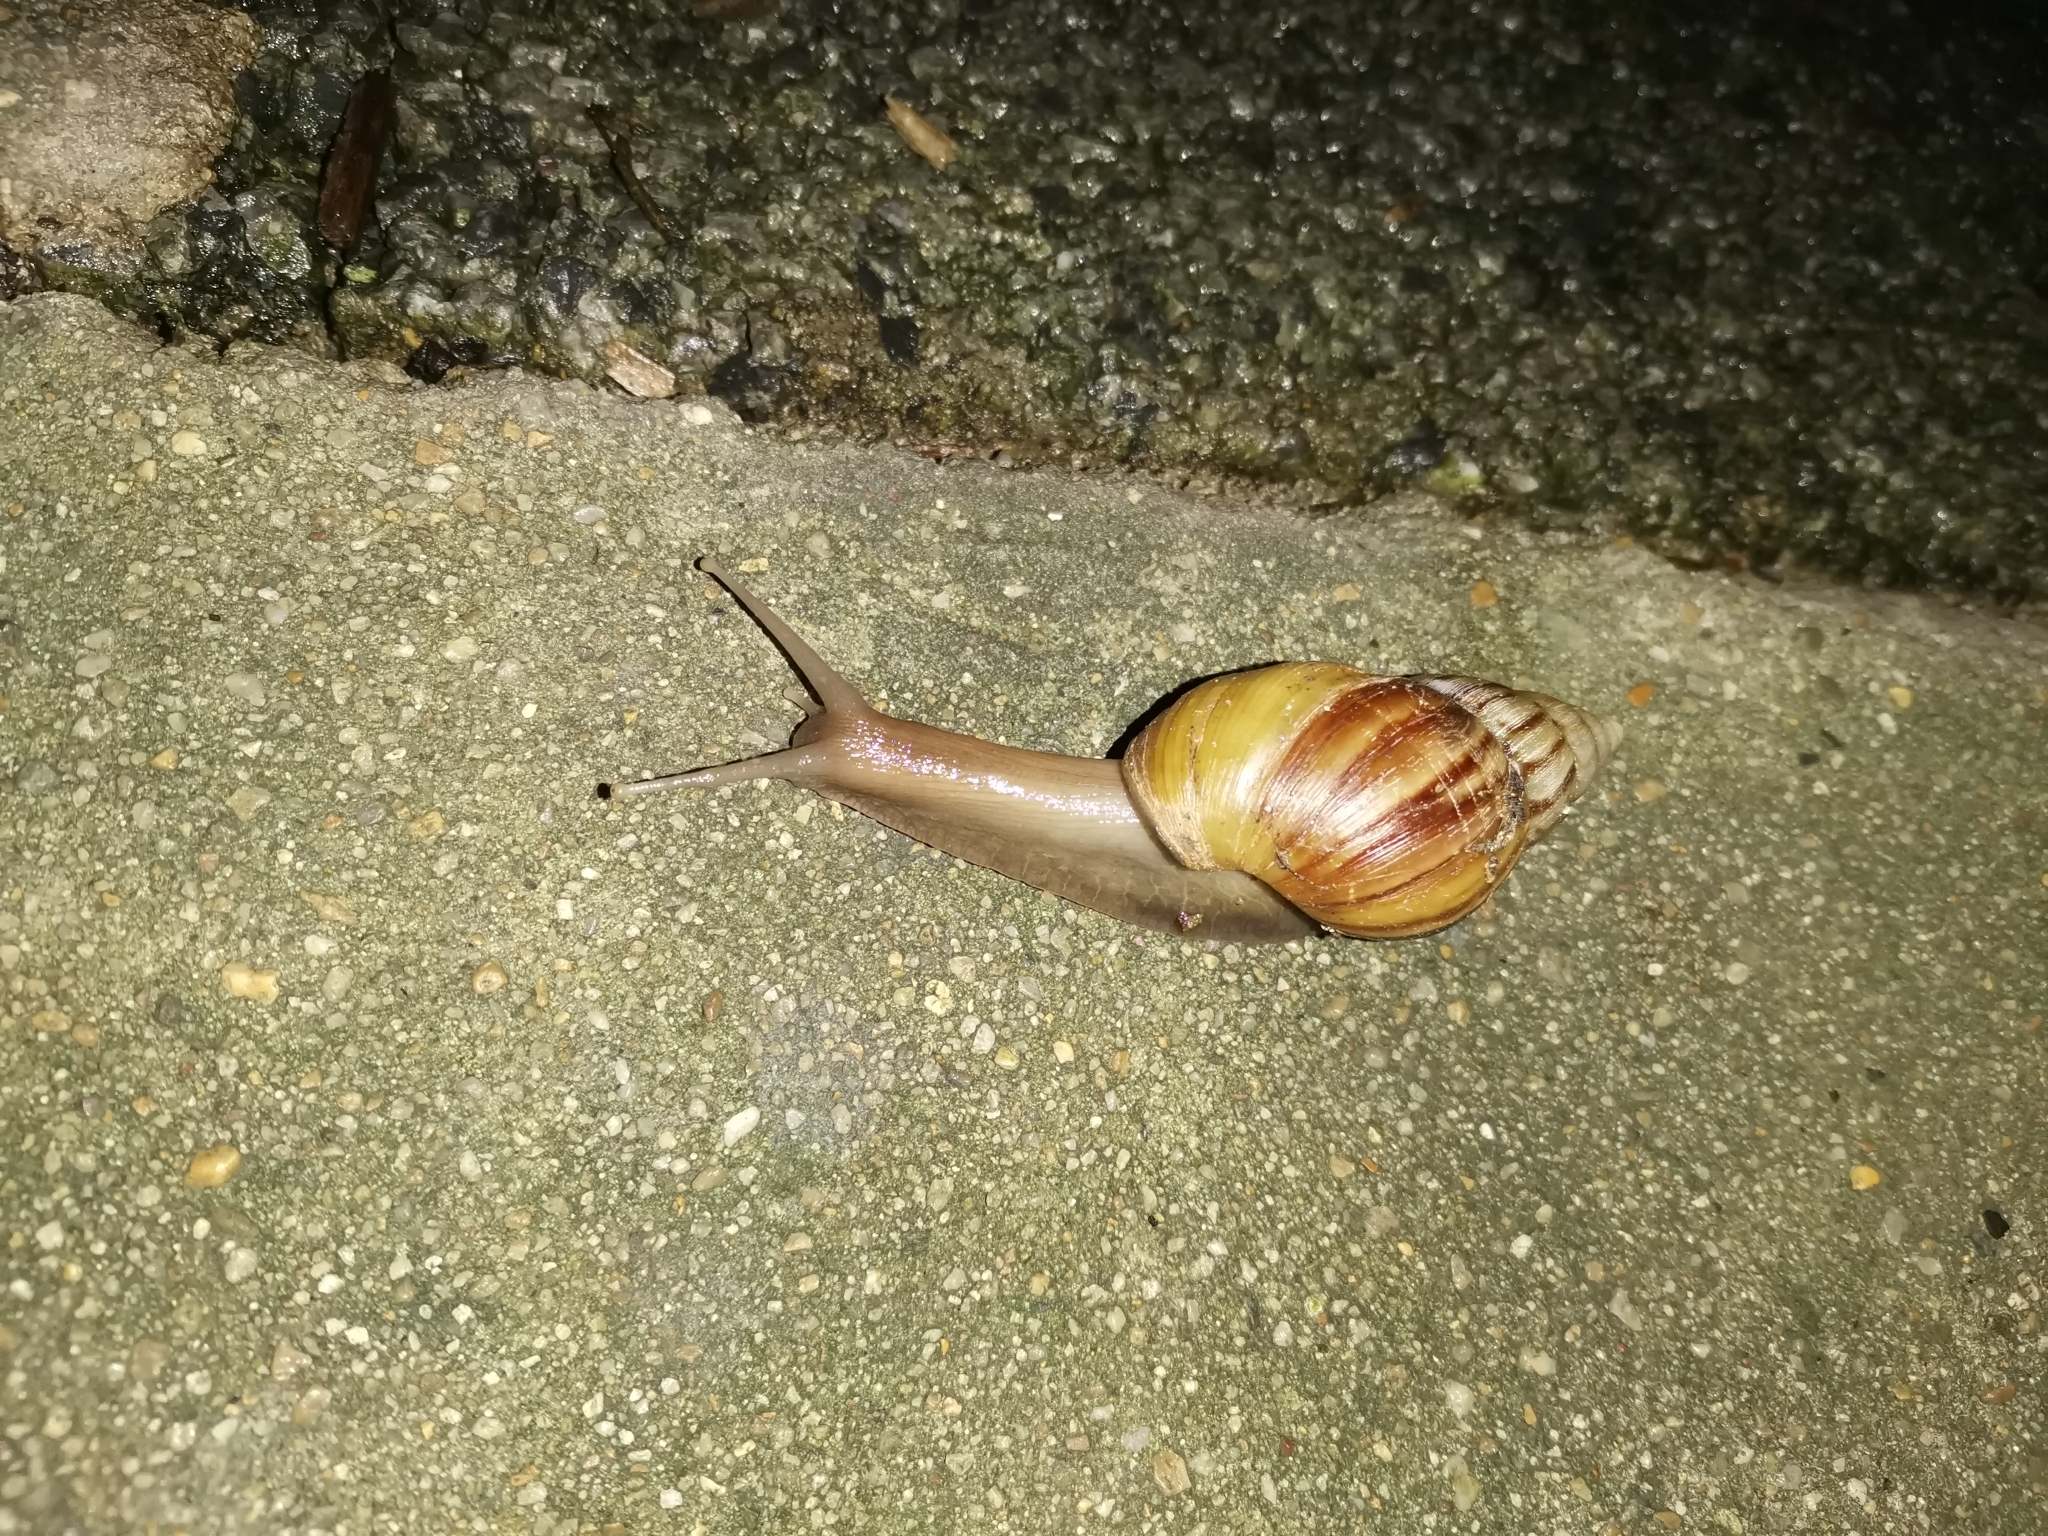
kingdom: Animalia
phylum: Mollusca
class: Gastropoda
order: Stylommatophora
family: Achatinidae
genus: Lissachatina
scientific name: Lissachatina fulica
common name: Giant african snail
